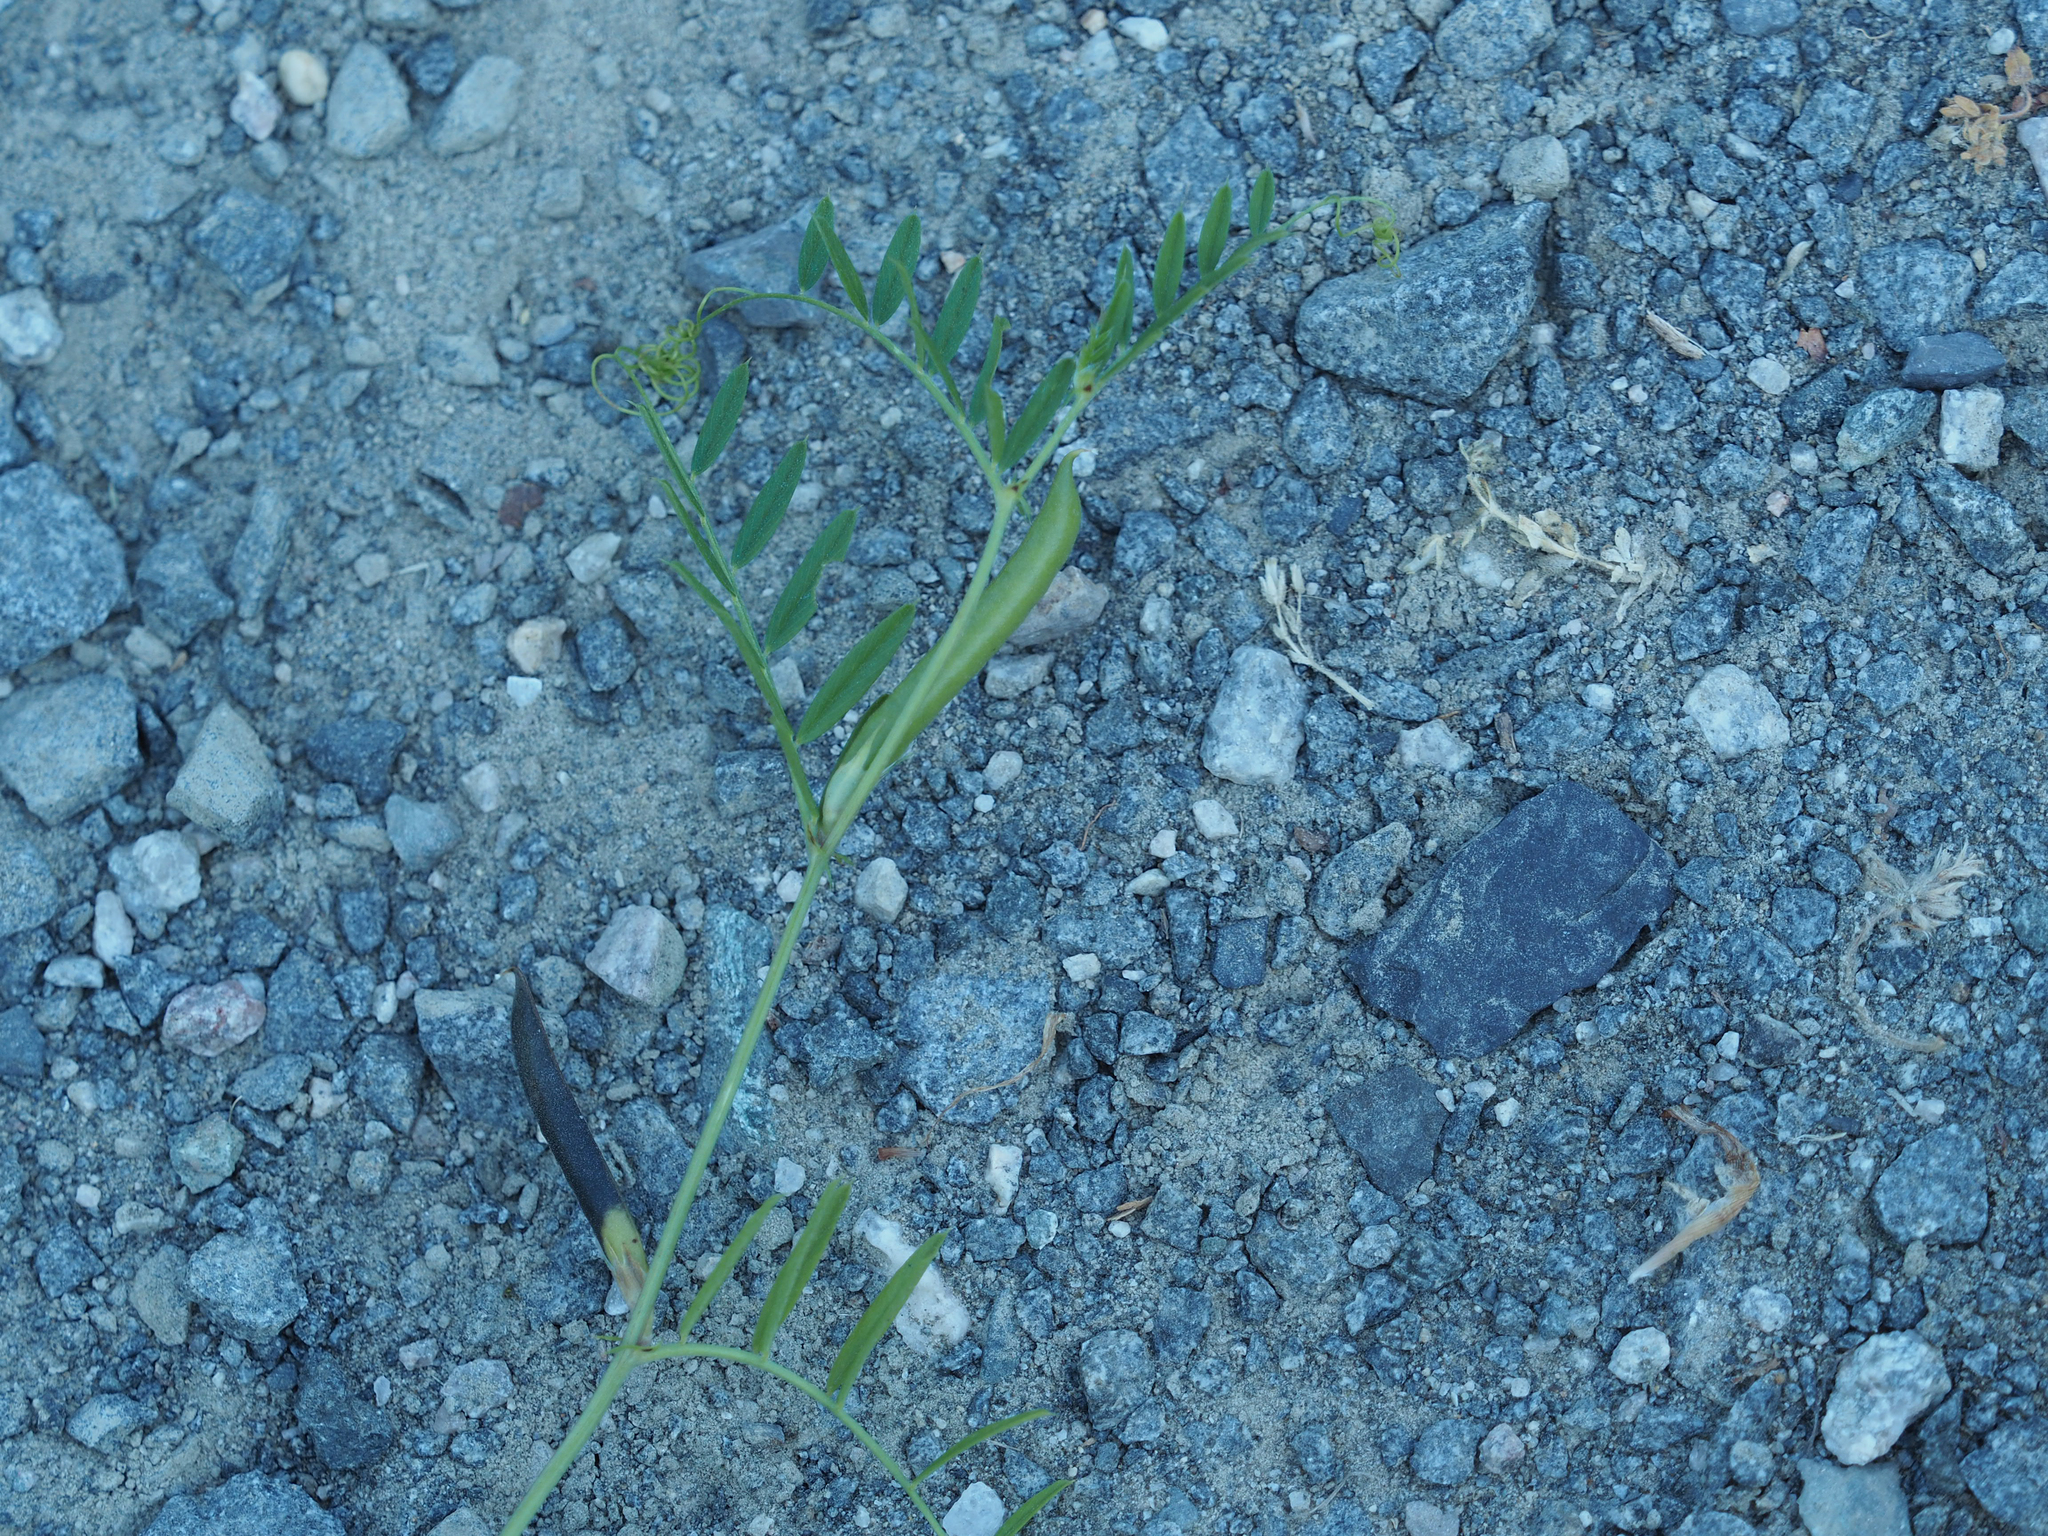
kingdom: Plantae
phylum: Tracheophyta
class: Magnoliopsida
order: Fabales
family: Fabaceae
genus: Vicia
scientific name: Vicia sativa
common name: Garden vetch
